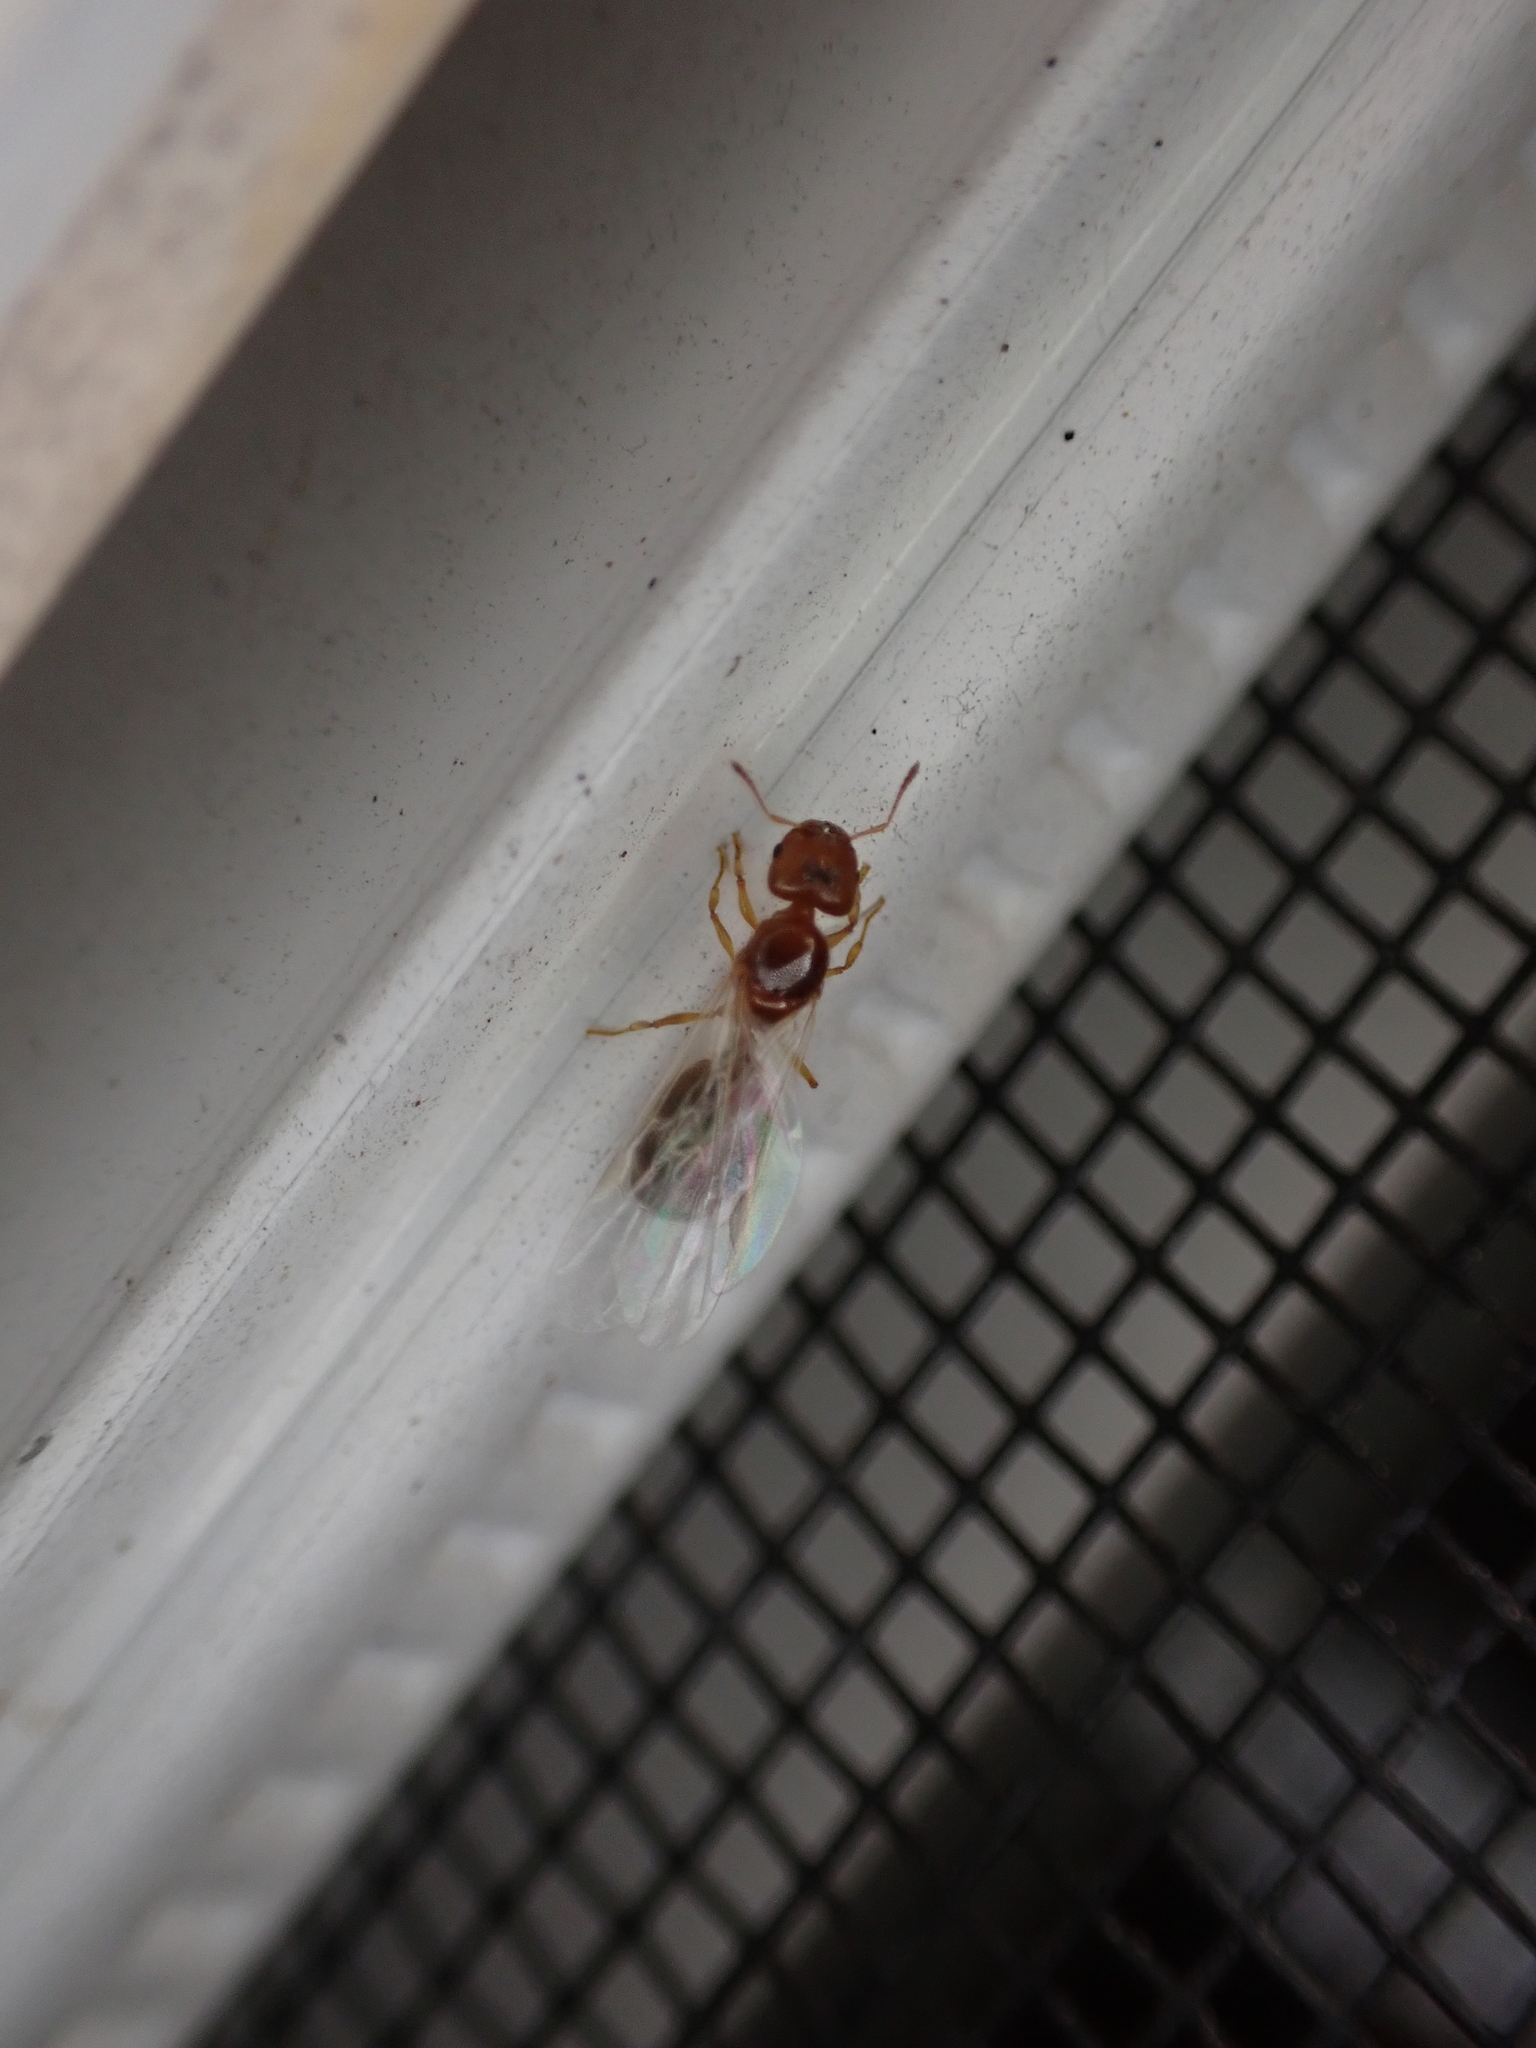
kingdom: Animalia
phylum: Arthropoda
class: Insecta
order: Hymenoptera
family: Formicidae
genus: Pheidole
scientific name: Pheidole bicarinata
